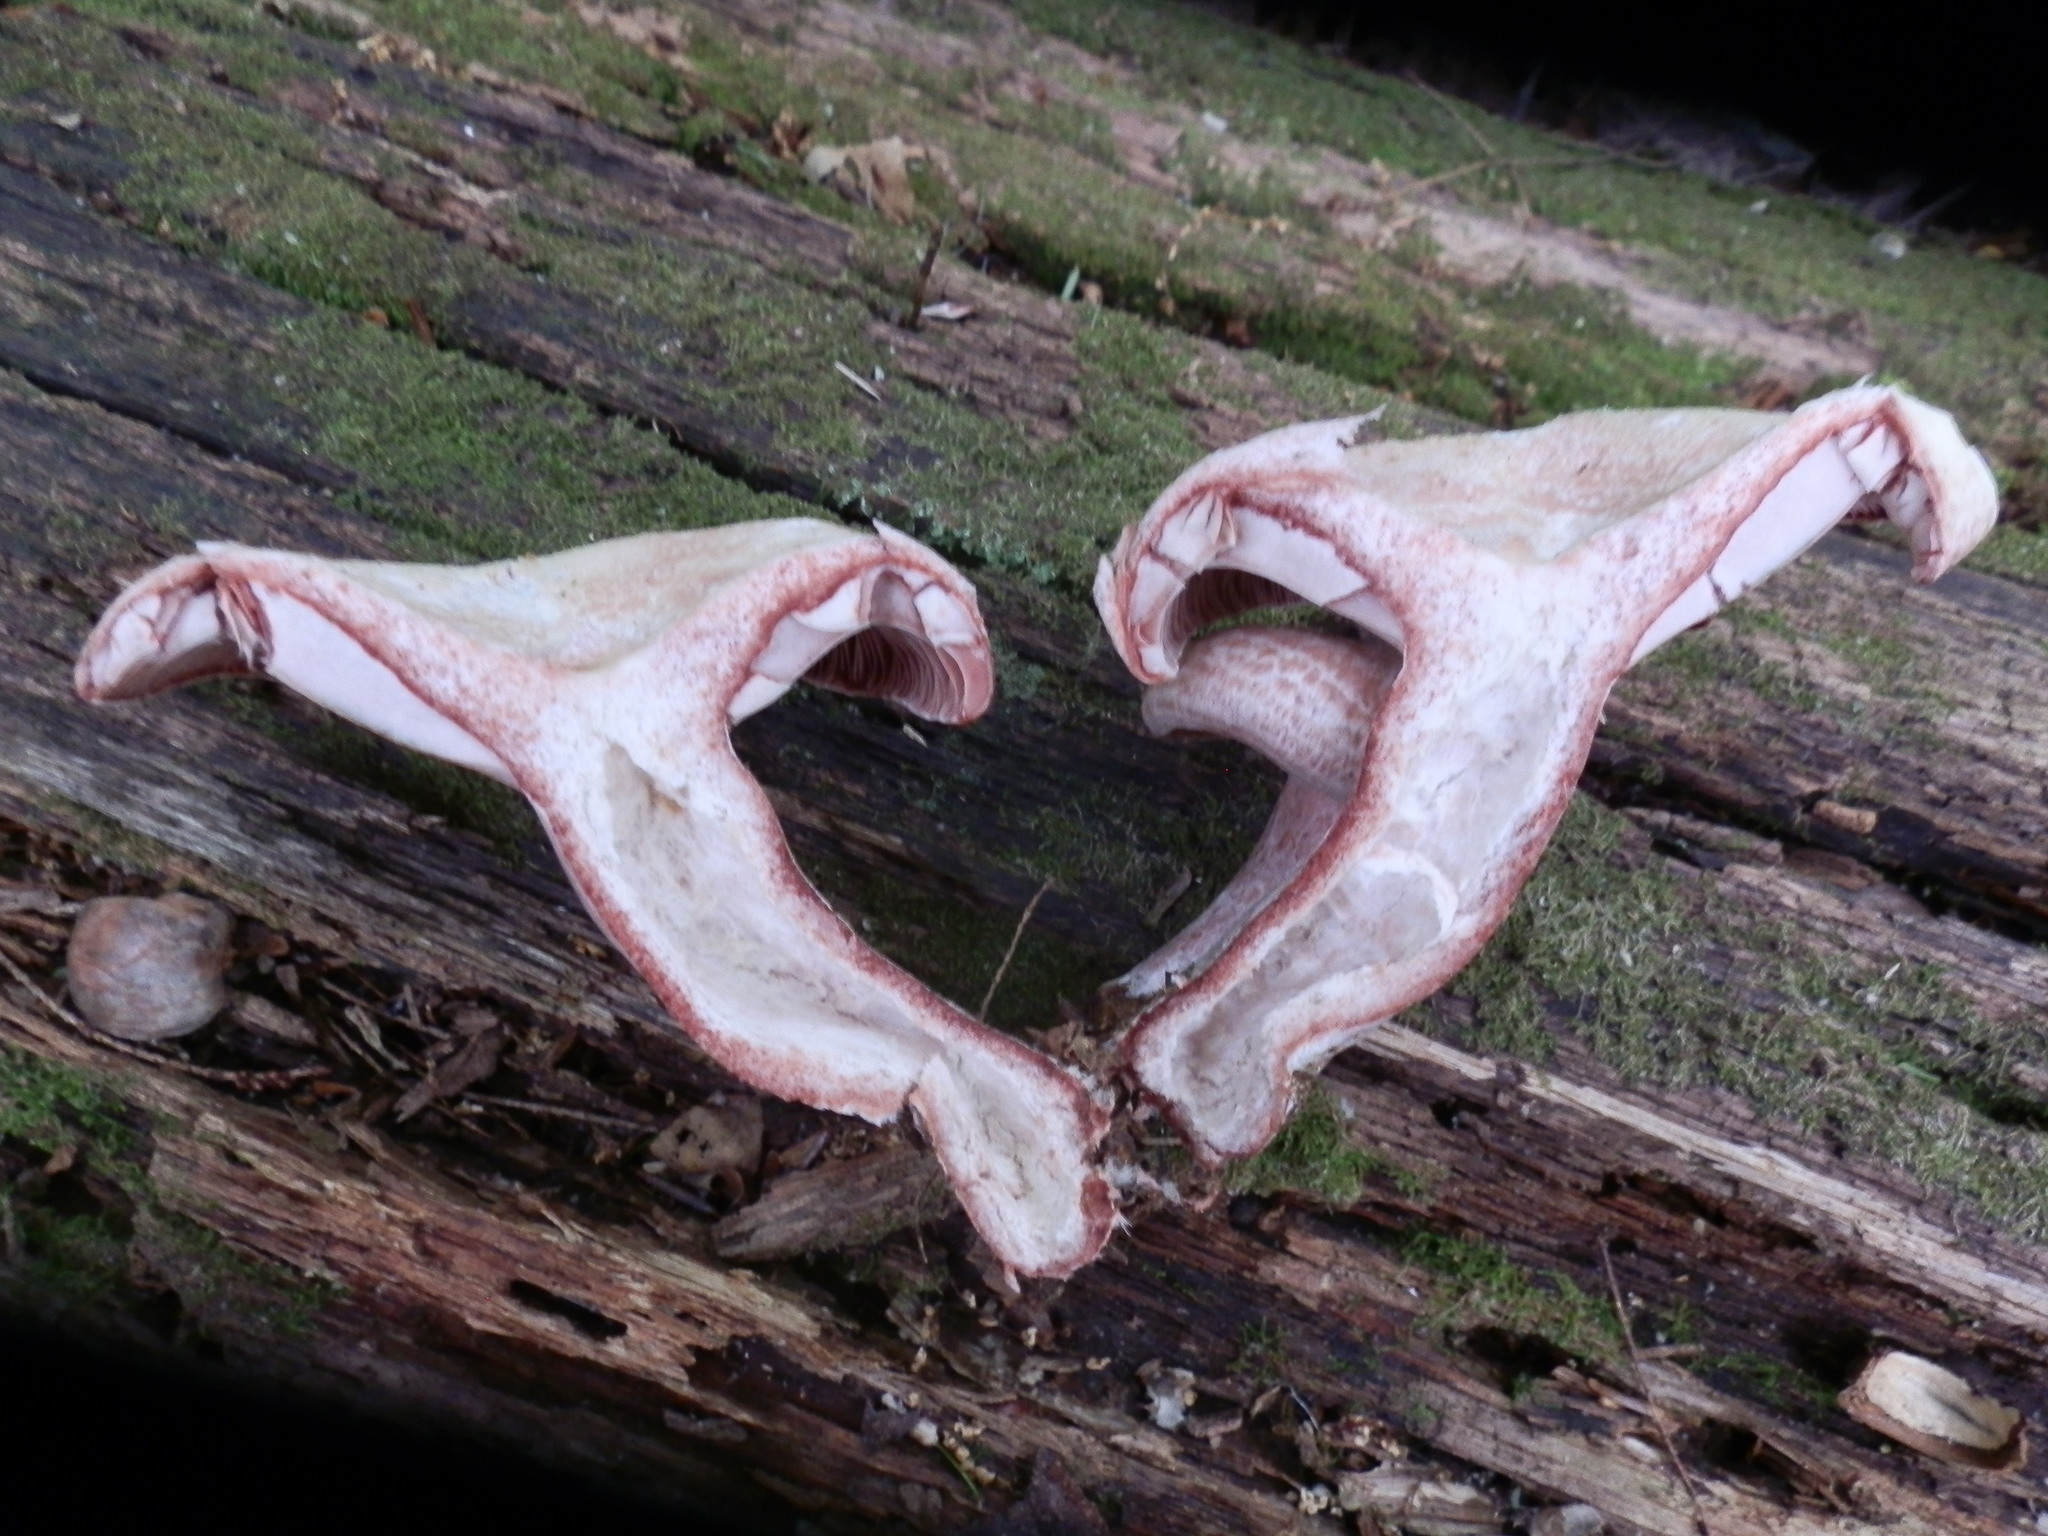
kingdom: Fungi
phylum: Basidiomycota
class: Agaricomycetes
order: Russulales
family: Russulaceae
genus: Lactarius
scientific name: Lactarius subpurpureus
